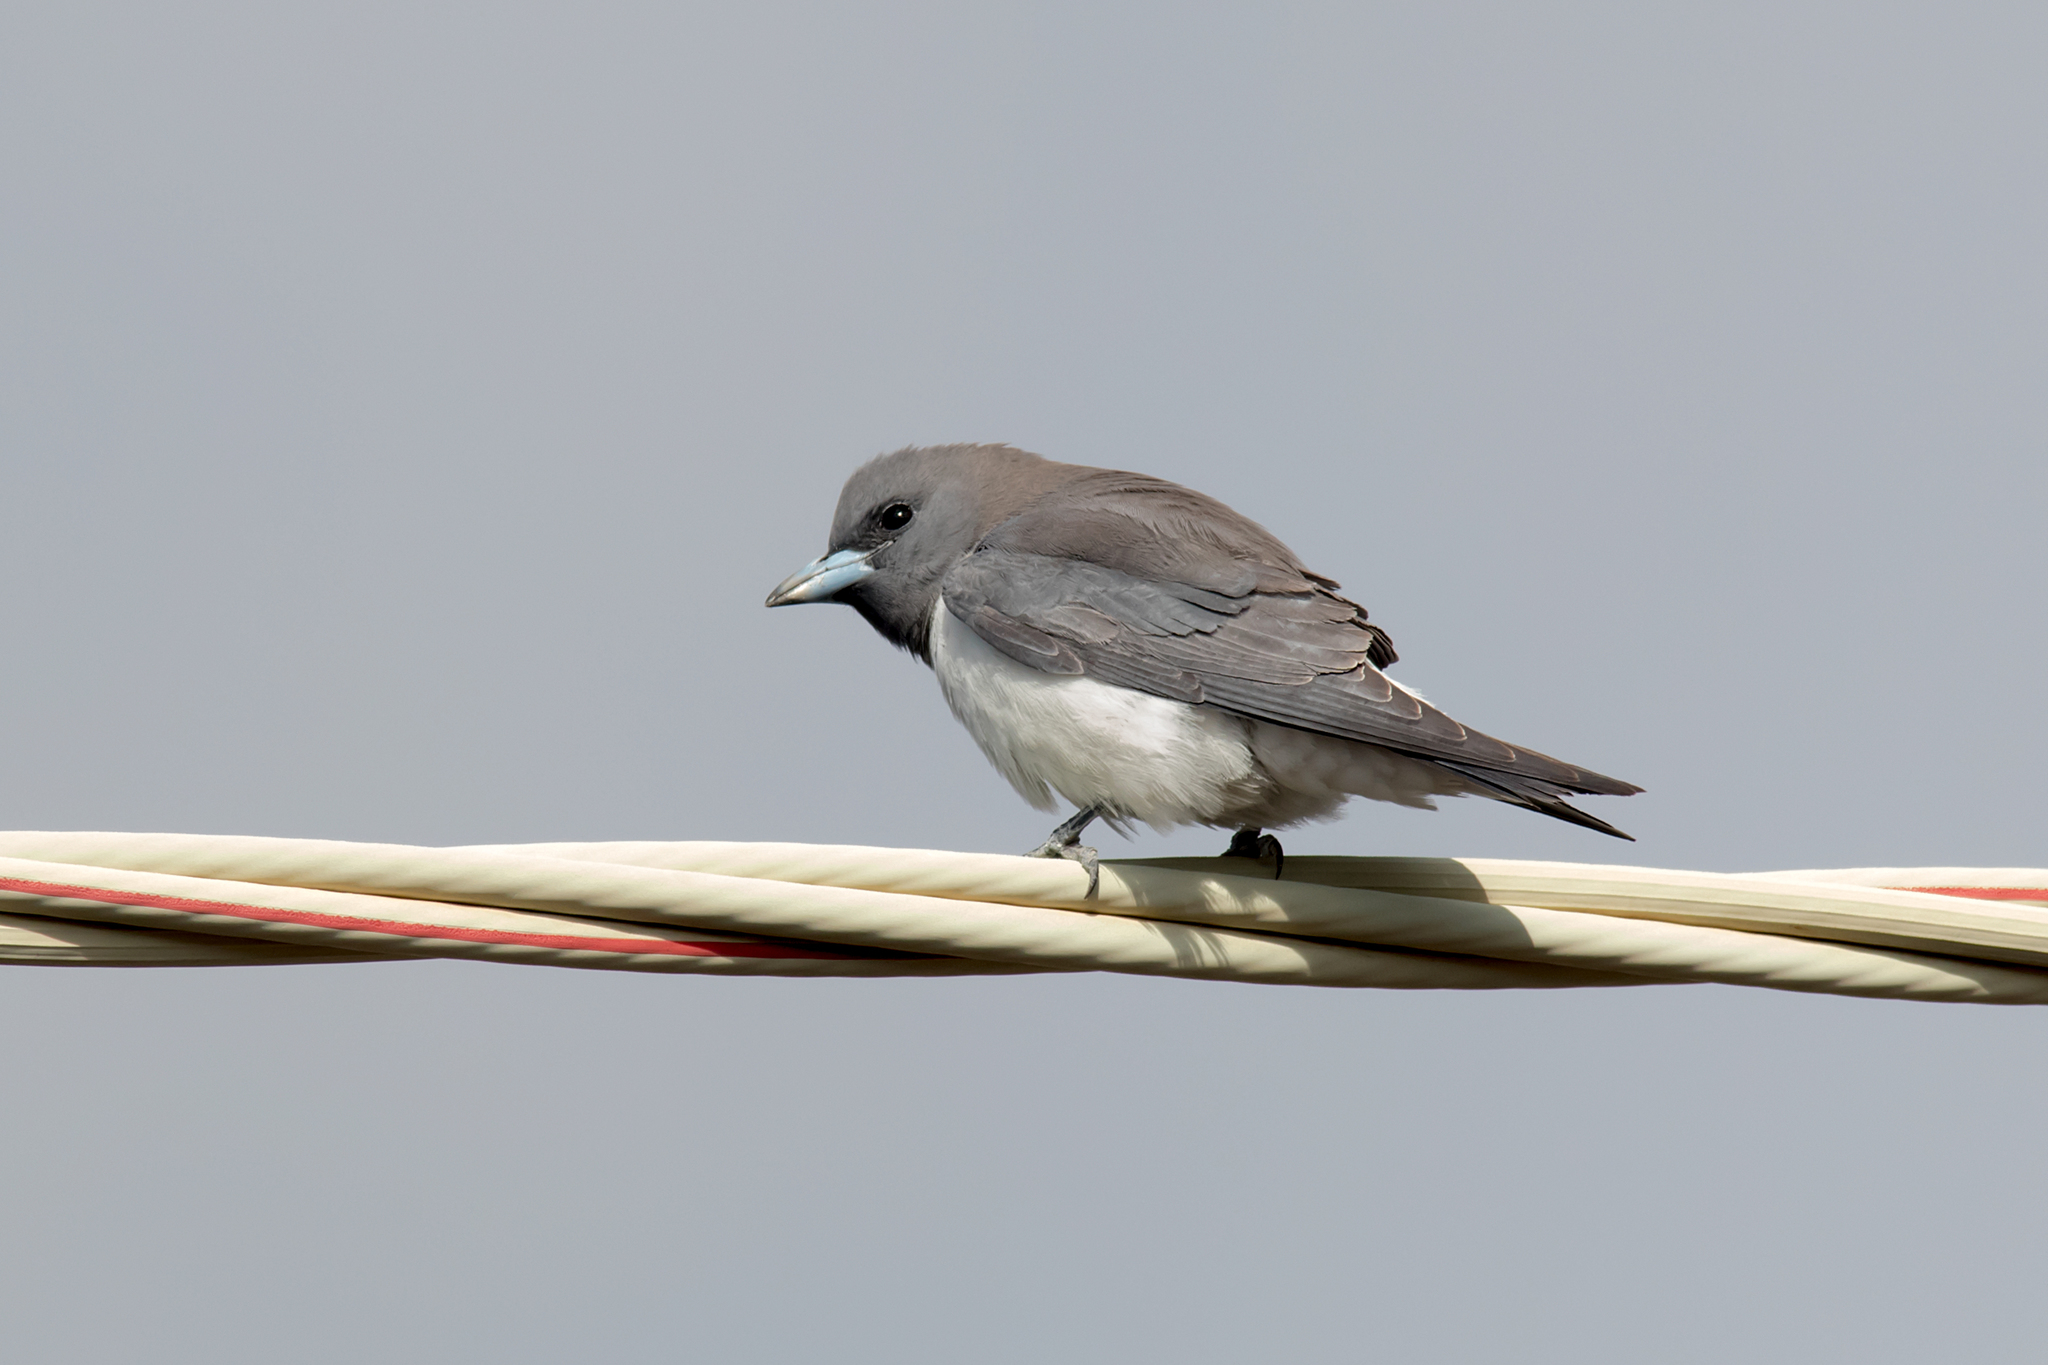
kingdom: Animalia
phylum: Chordata
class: Aves
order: Passeriformes
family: Artamidae
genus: Artamus
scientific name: Artamus leucoryn
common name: White-breasted woodswallow
